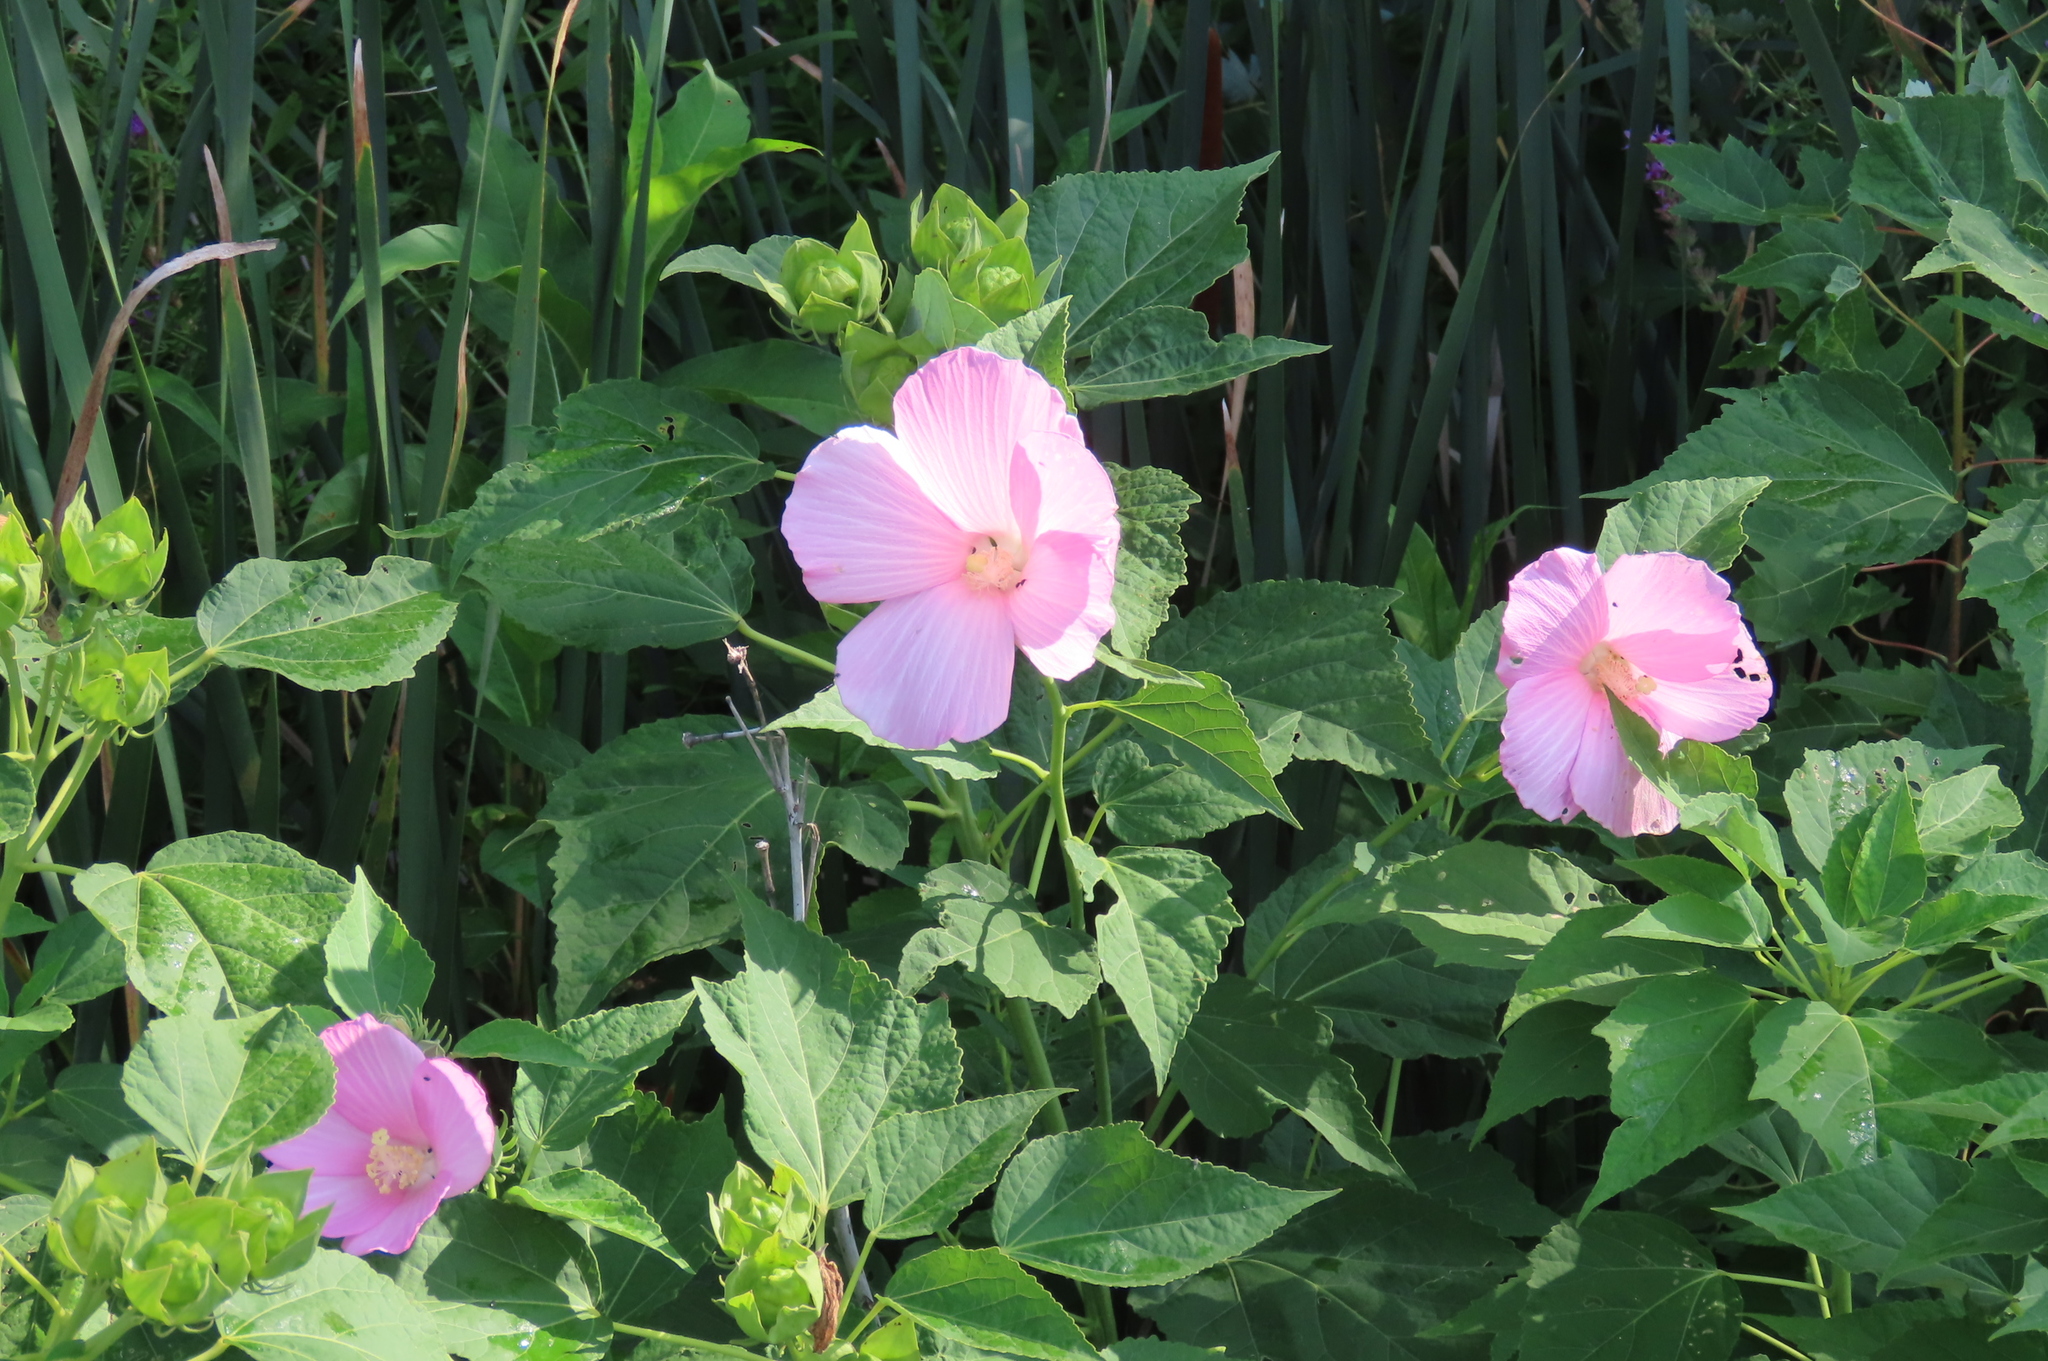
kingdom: Plantae
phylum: Tracheophyta
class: Magnoliopsida
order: Malvales
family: Malvaceae
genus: Hibiscus
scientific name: Hibiscus moscheutos
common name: Common rose-mallow
